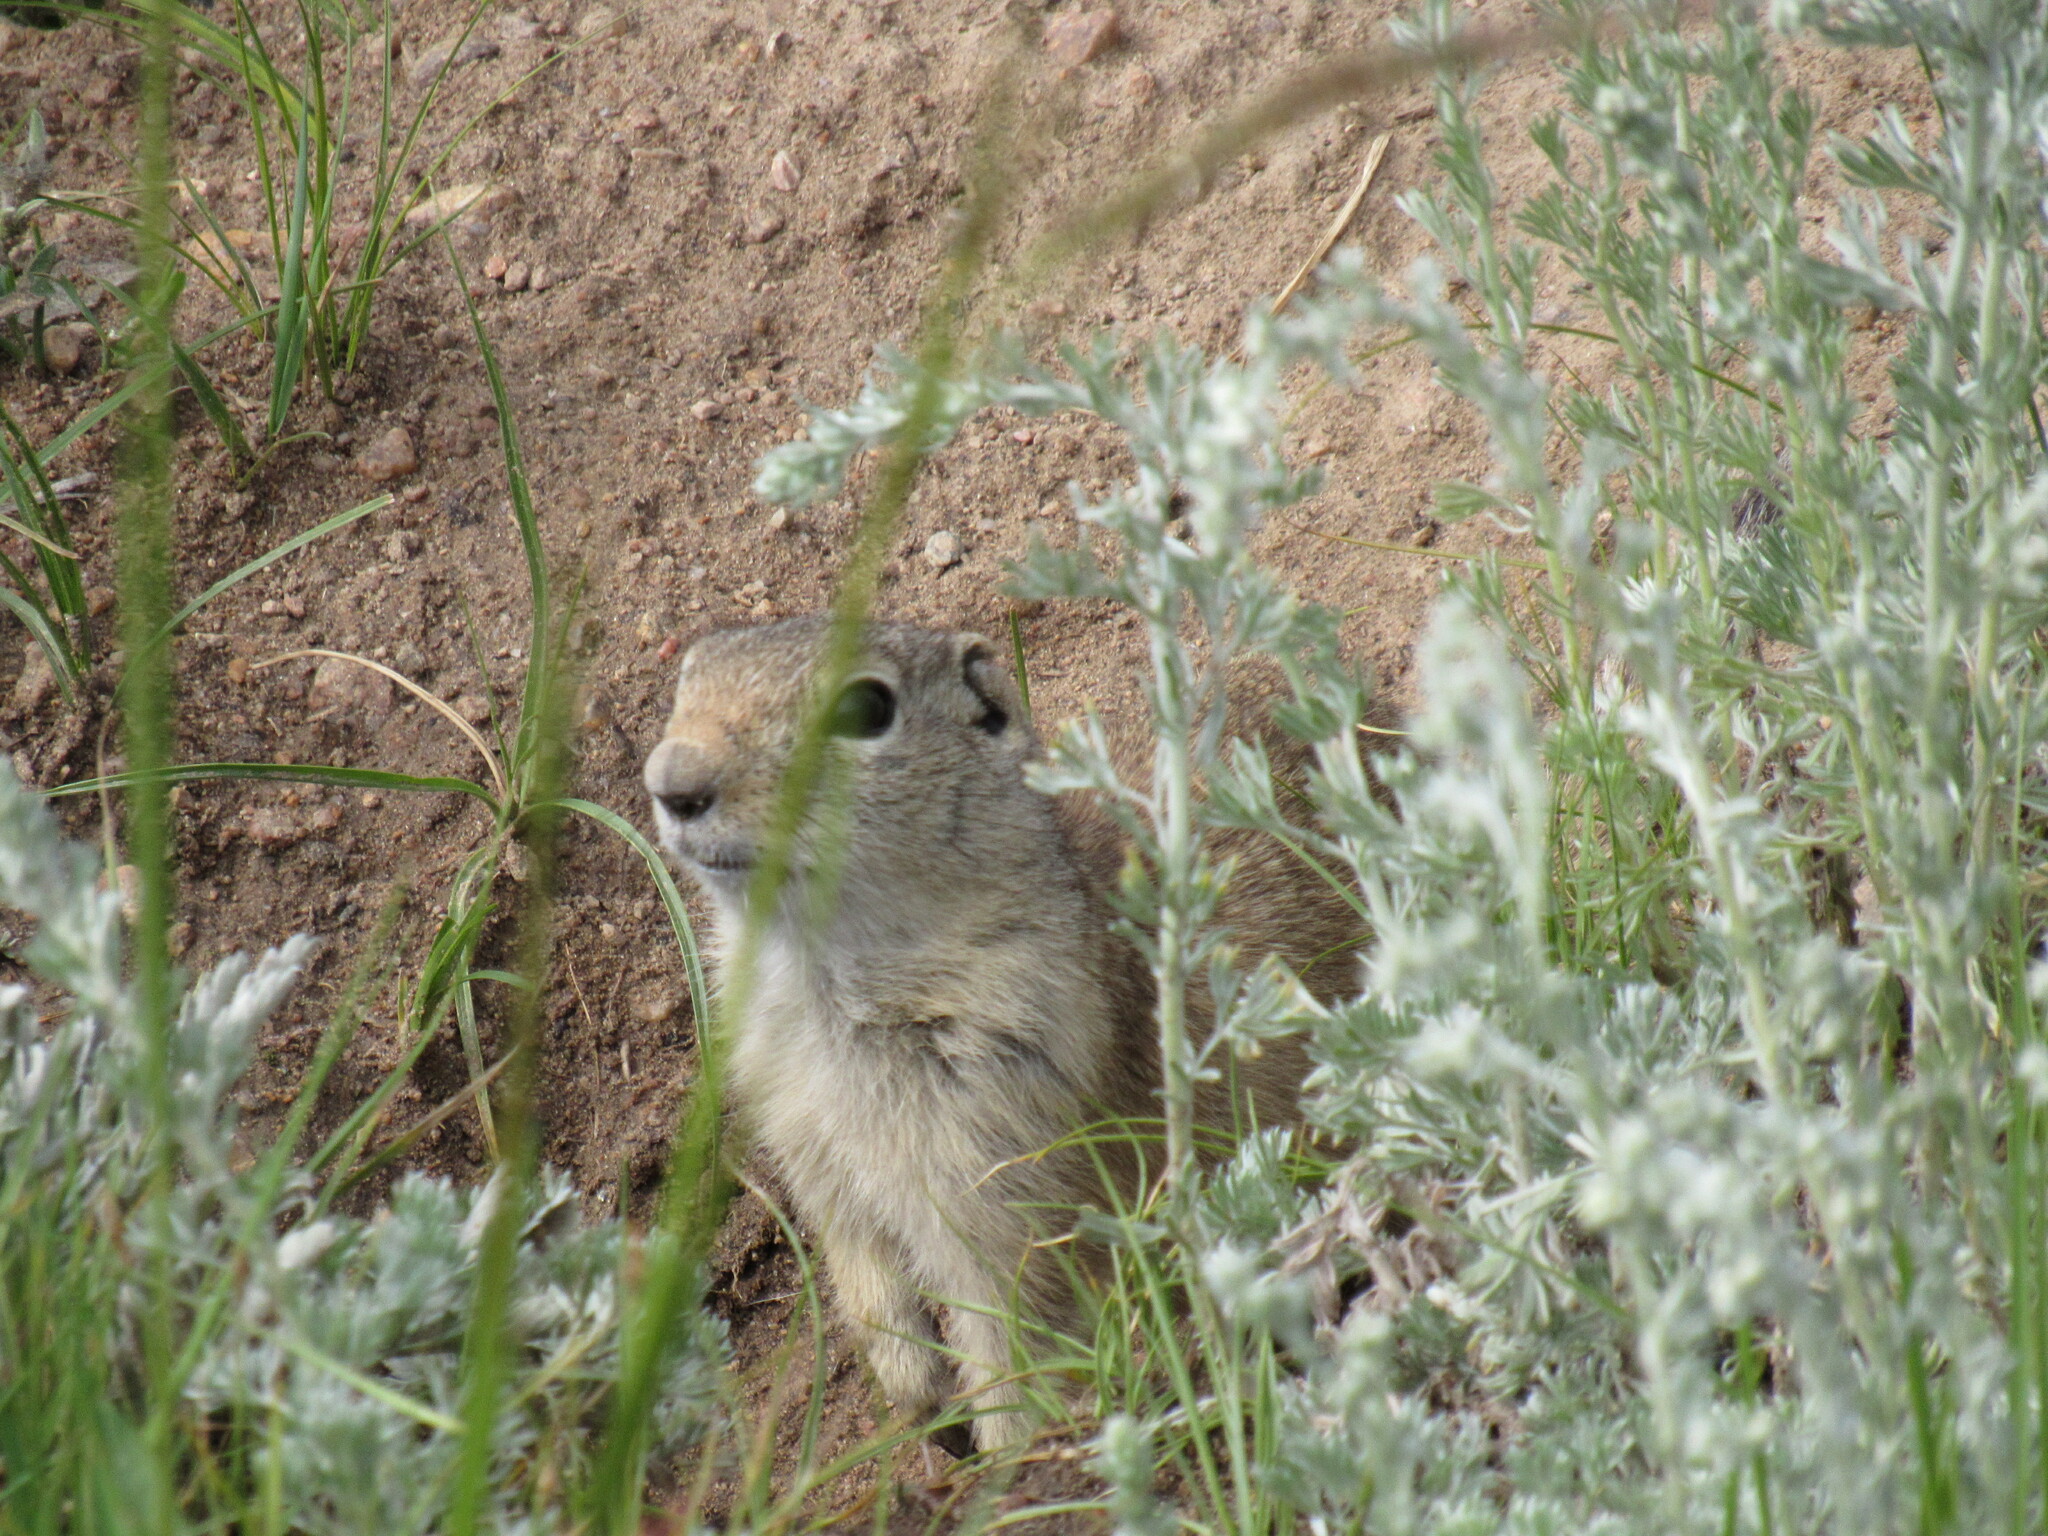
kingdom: Animalia
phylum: Chordata
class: Mammalia
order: Rodentia
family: Sciuridae
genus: Urocitellus
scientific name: Urocitellus elegans
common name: Wyoming ground squirrel
